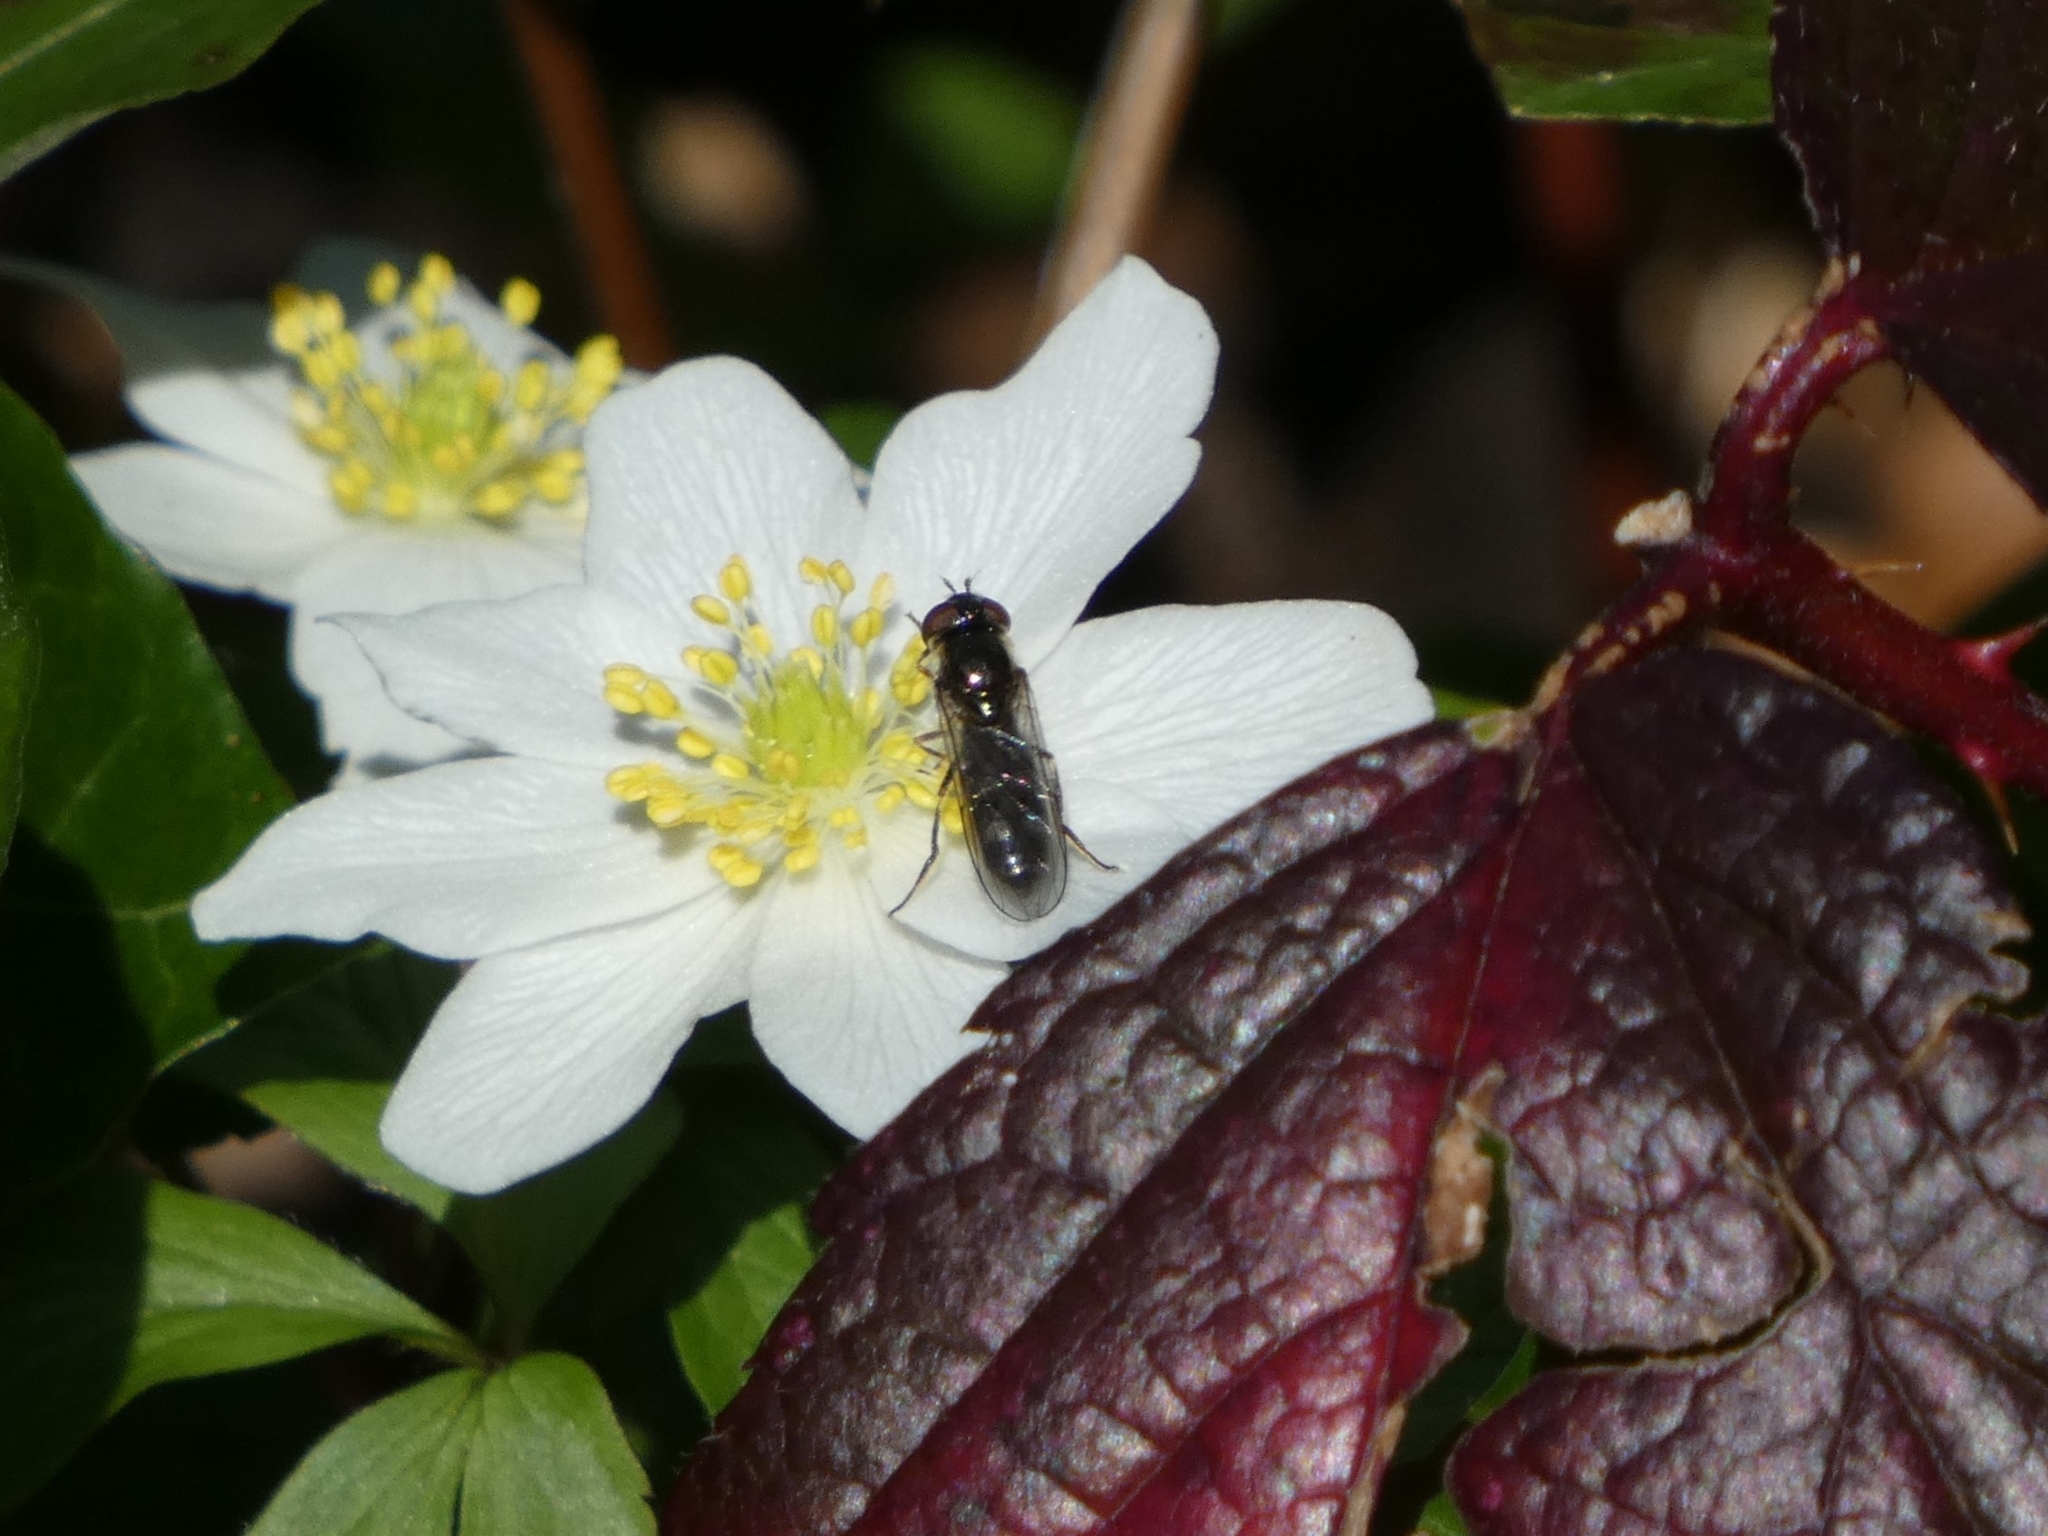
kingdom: Animalia
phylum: Arthropoda
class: Insecta
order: Diptera
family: Syrphidae
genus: Platycheirus
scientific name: Platycheirus albimanus
